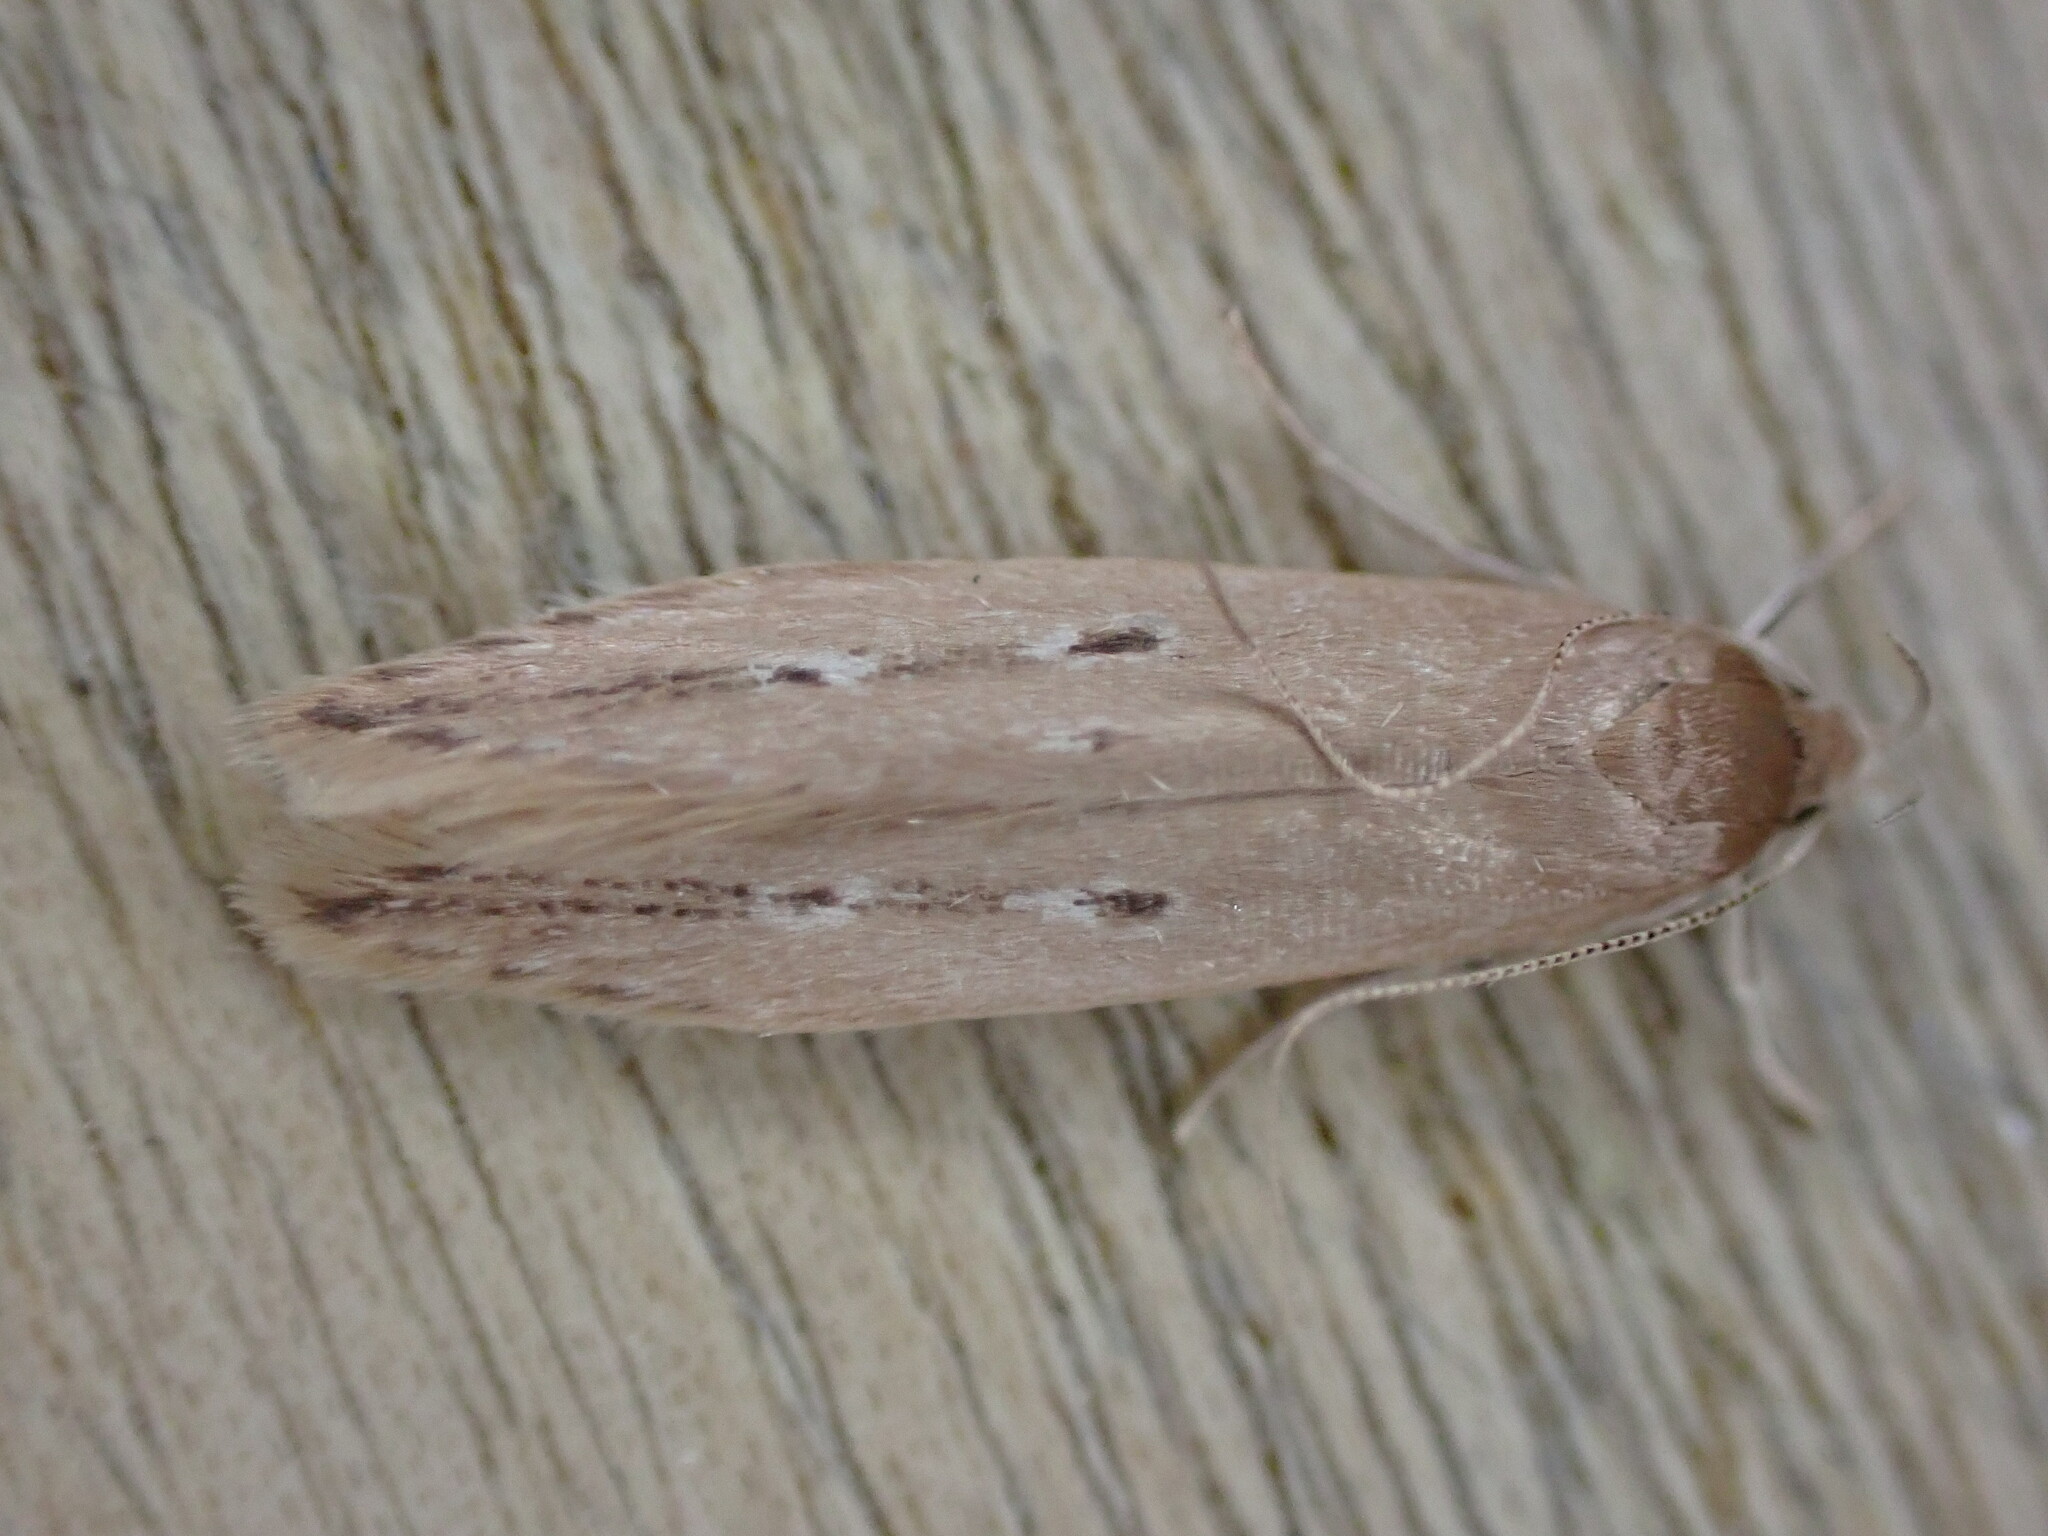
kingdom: Animalia
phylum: Arthropoda
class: Insecta
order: Lepidoptera
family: Cosmopterigidae
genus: Limnaecia
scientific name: Limnaecia phragmitella
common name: Bulrush cosmet
